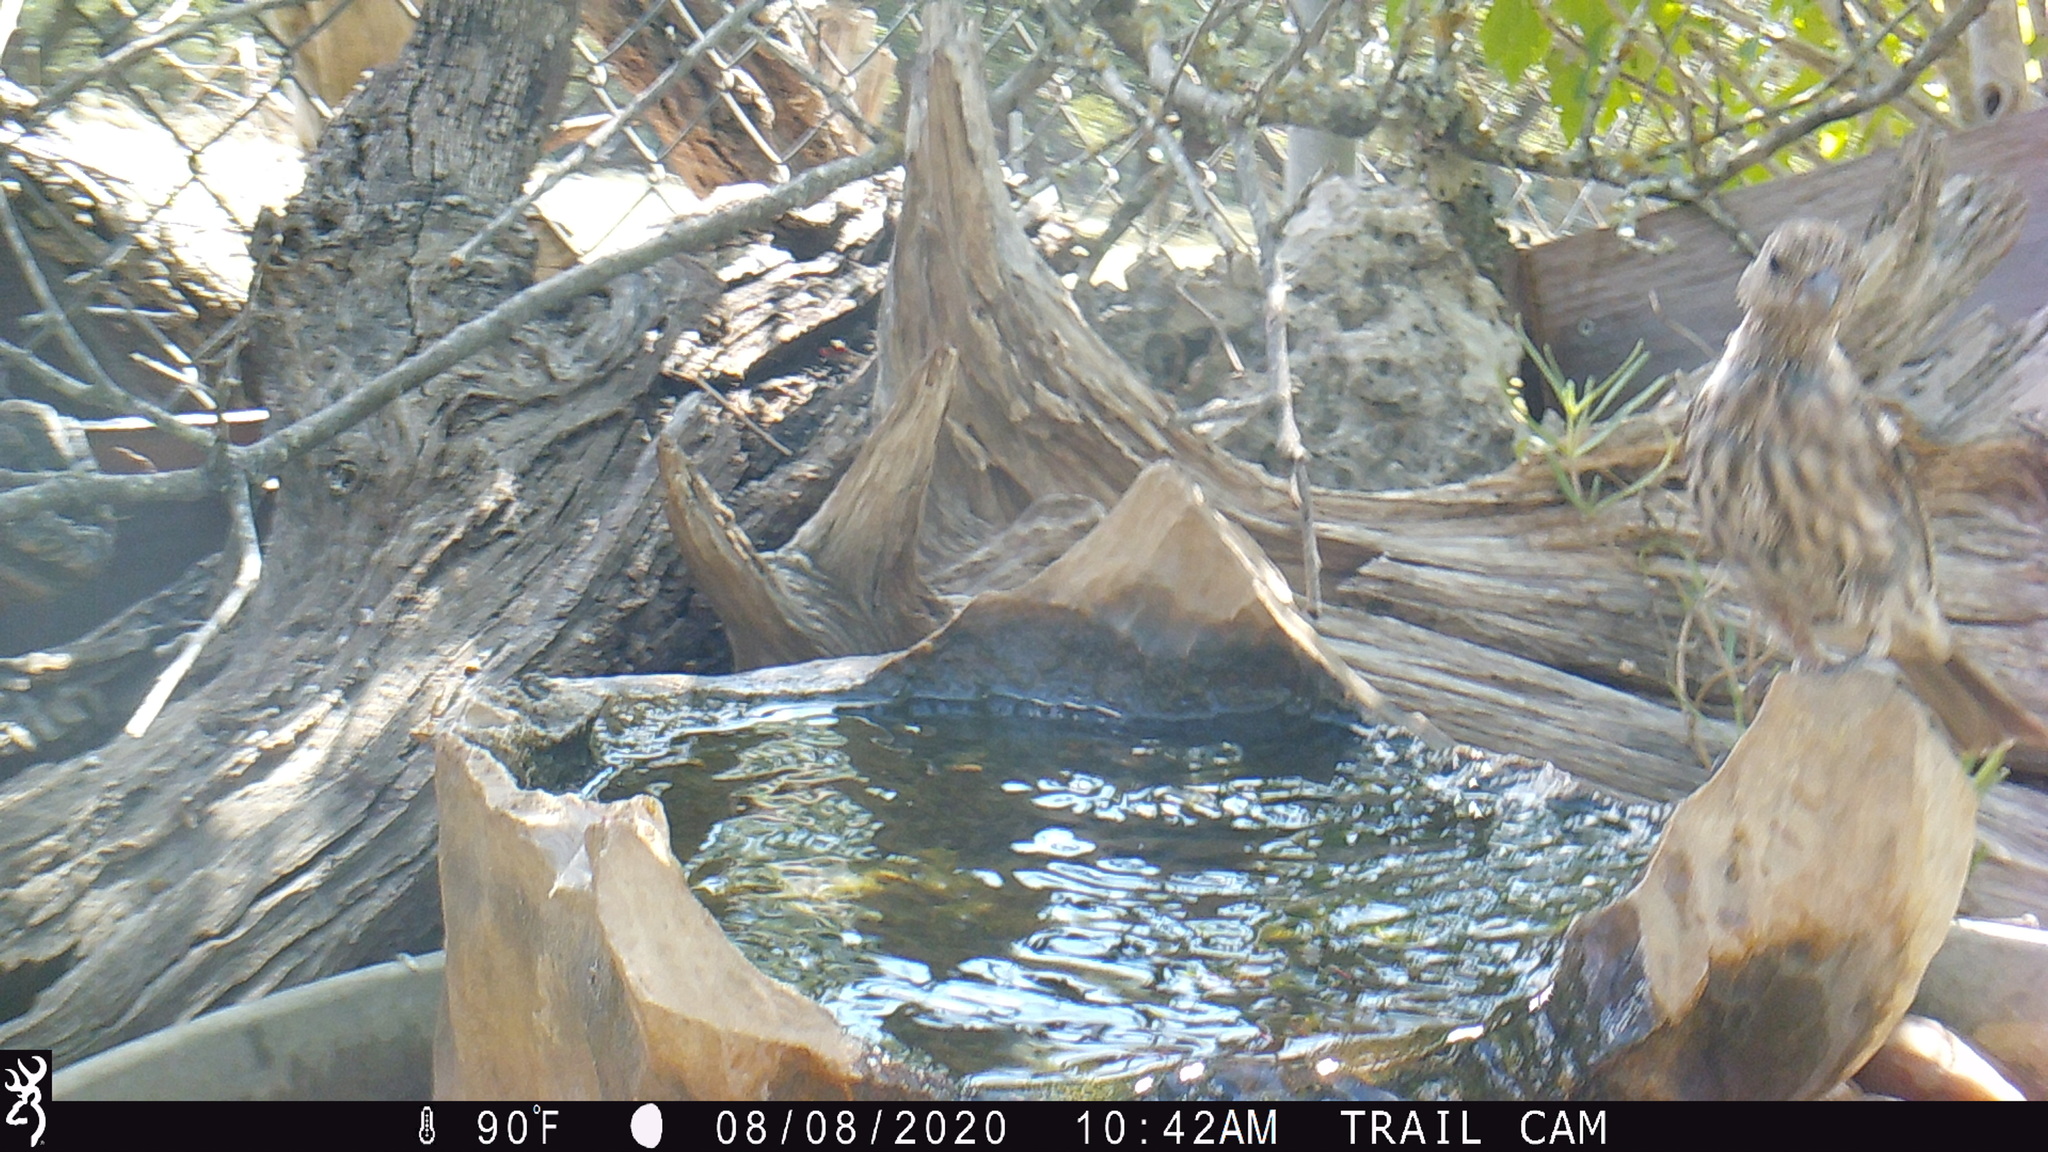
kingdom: Animalia
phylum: Chordata
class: Aves
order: Passeriformes
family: Fringillidae
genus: Haemorhous
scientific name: Haemorhous mexicanus
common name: House finch
